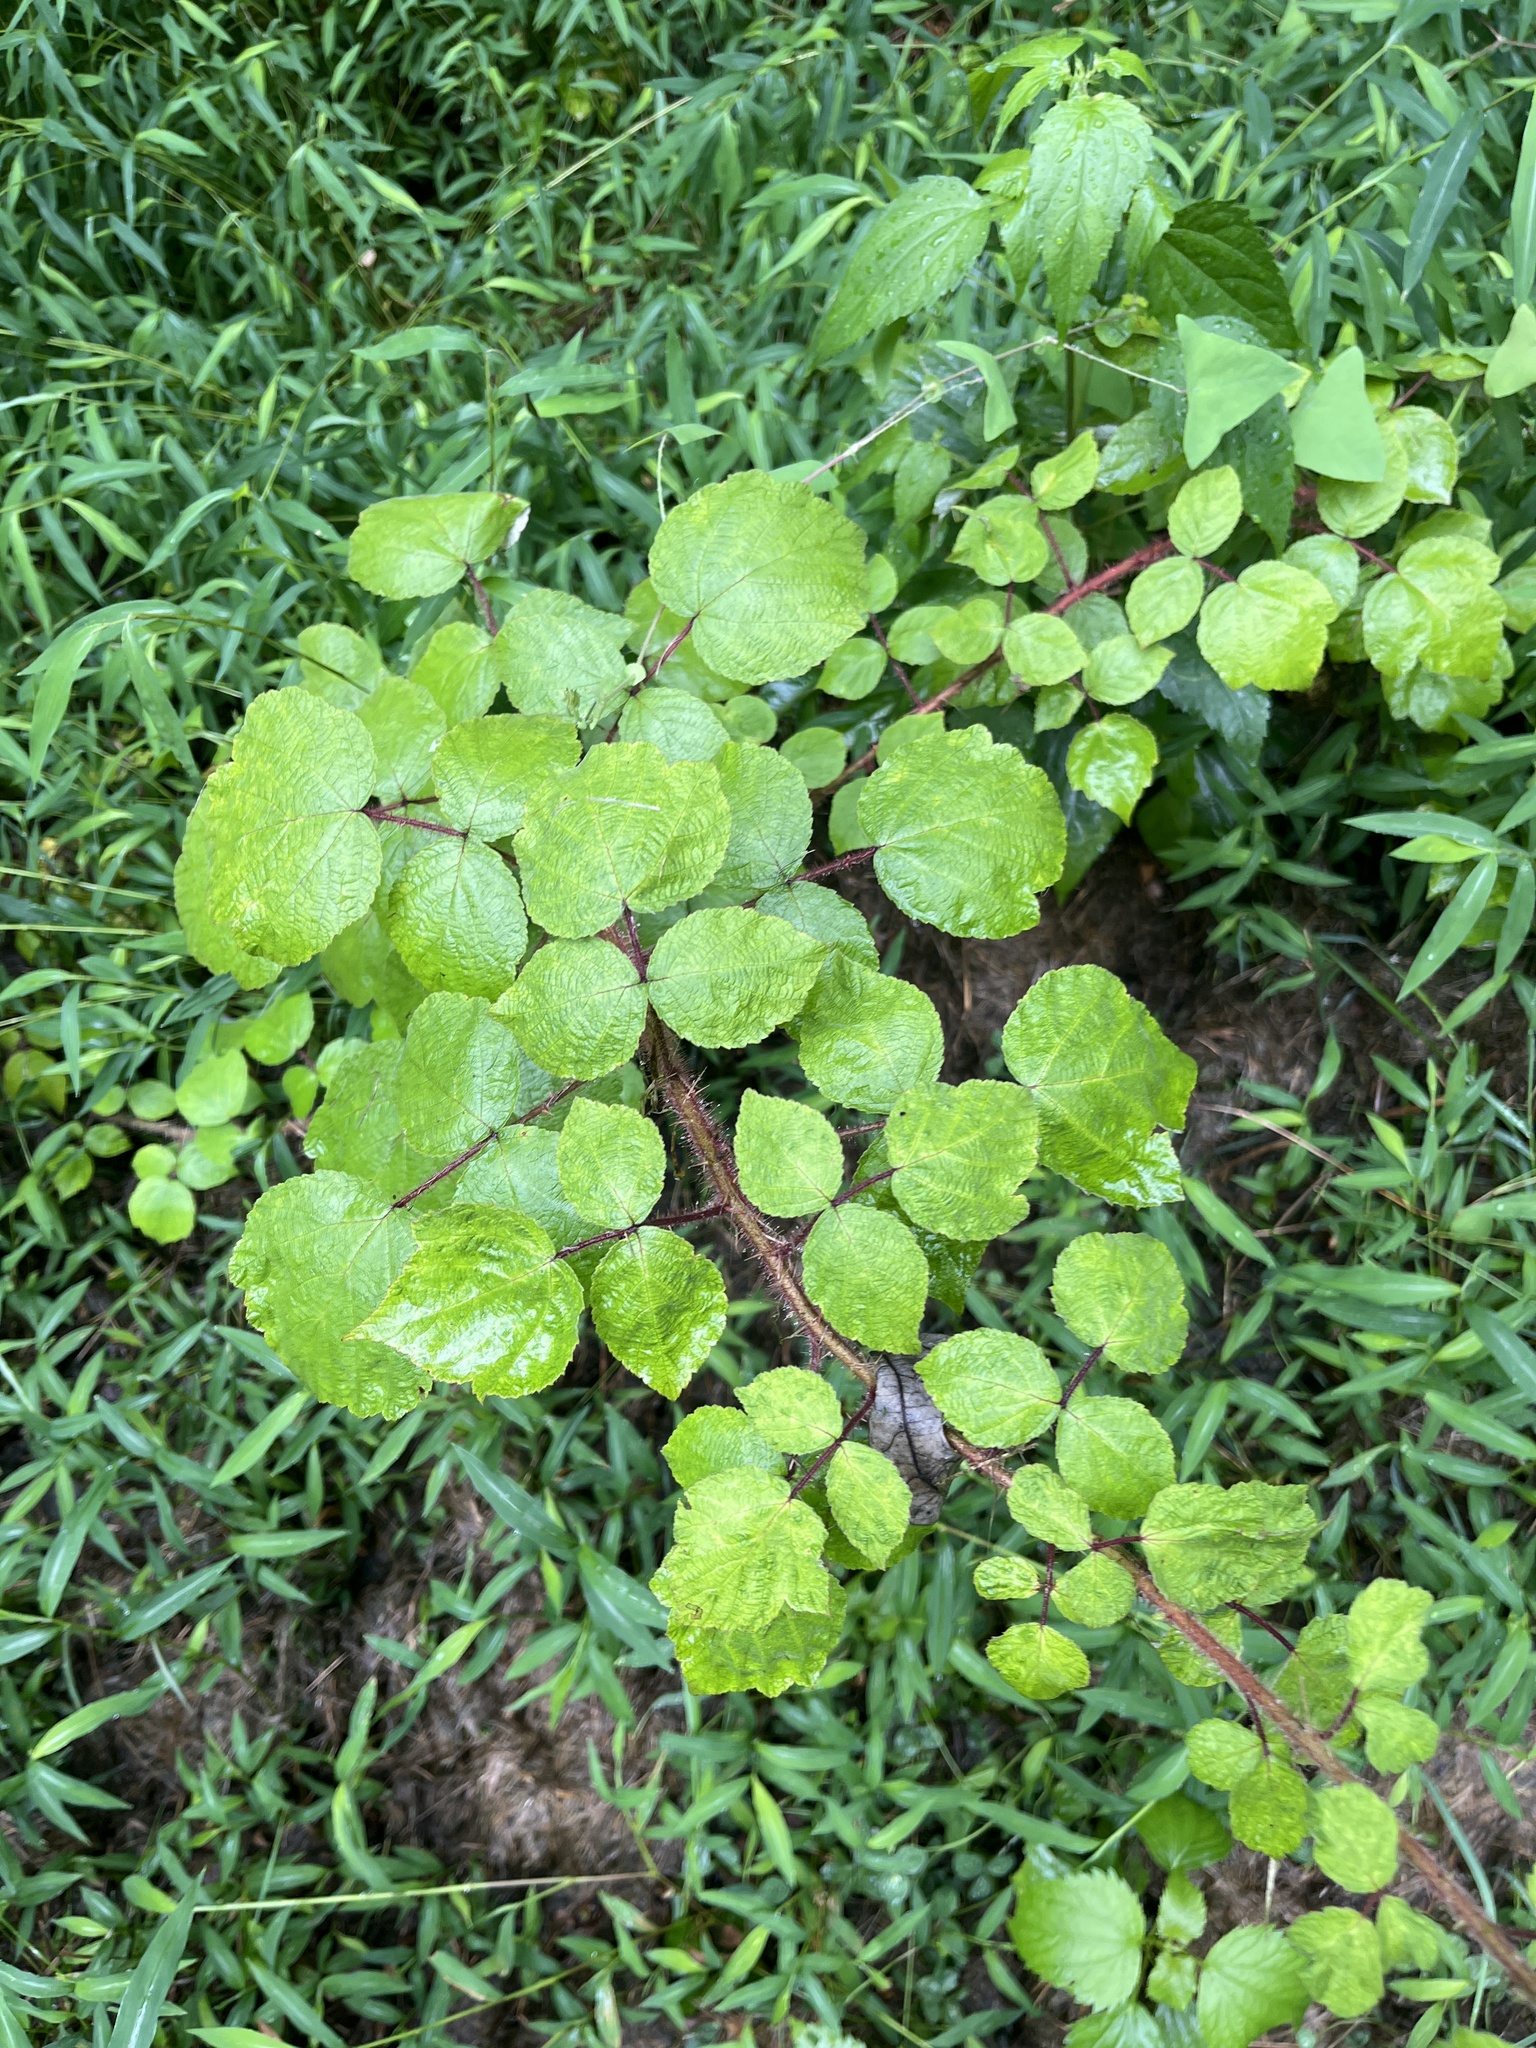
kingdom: Plantae
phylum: Tracheophyta
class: Magnoliopsida
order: Rosales
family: Rosaceae
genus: Rubus
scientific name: Rubus phoenicolasius
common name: Japanese wineberry
